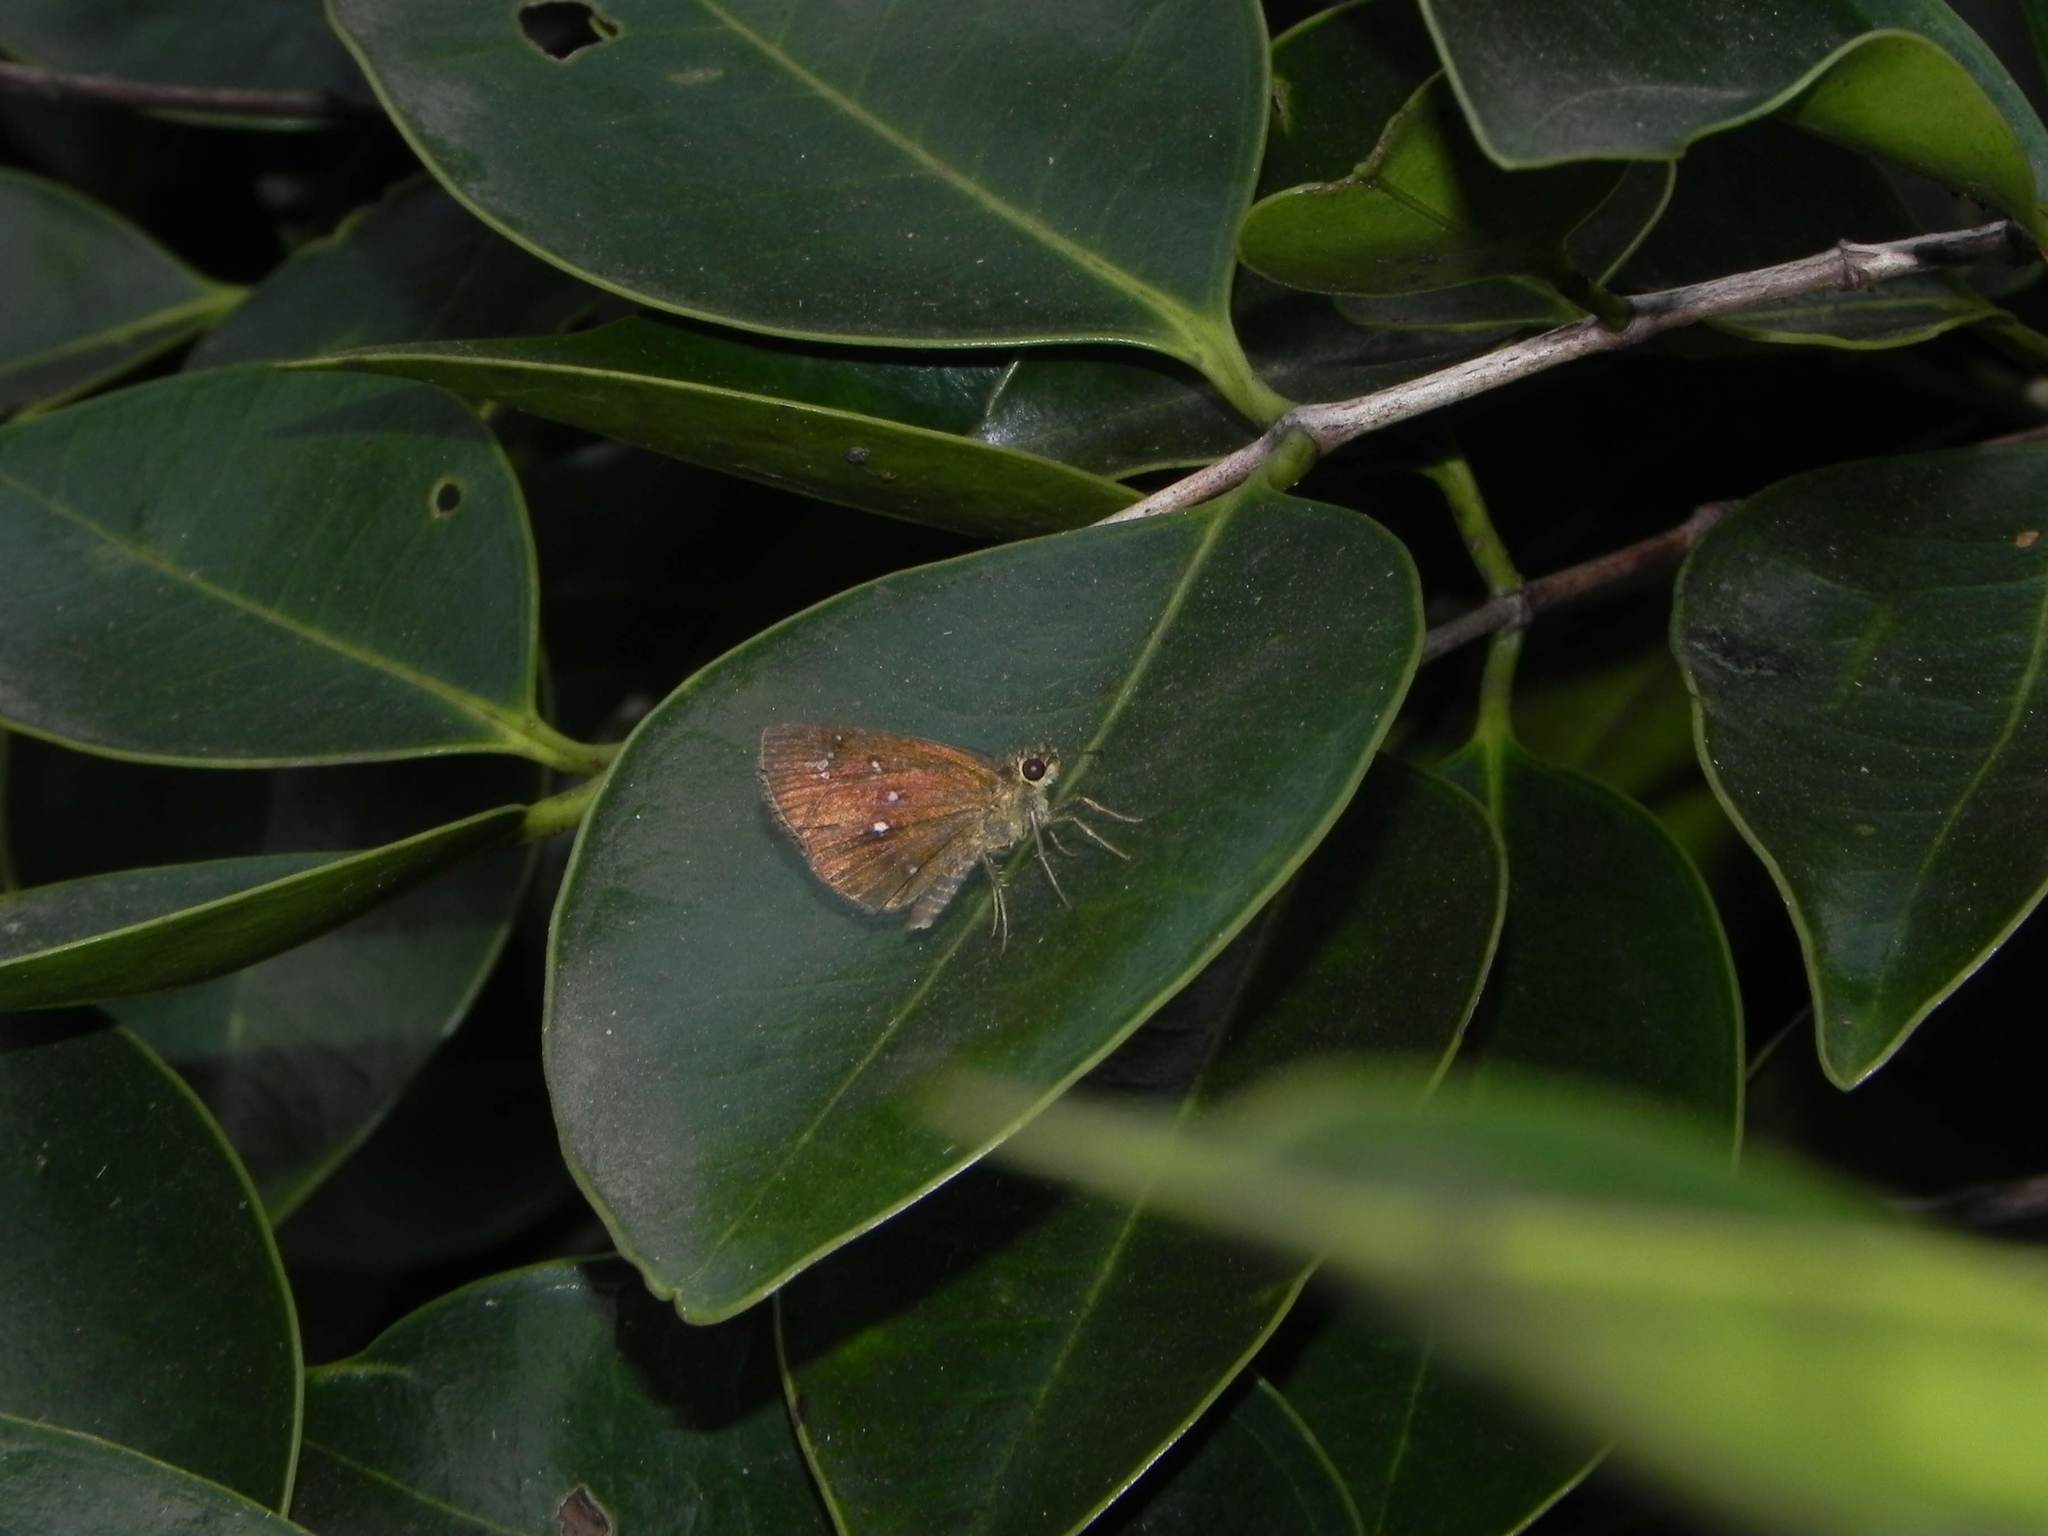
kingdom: Animalia
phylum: Arthropoda
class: Insecta
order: Lepidoptera
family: Hesperiidae
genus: Iambrix
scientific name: Iambrix salsala
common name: Chestnut bob
